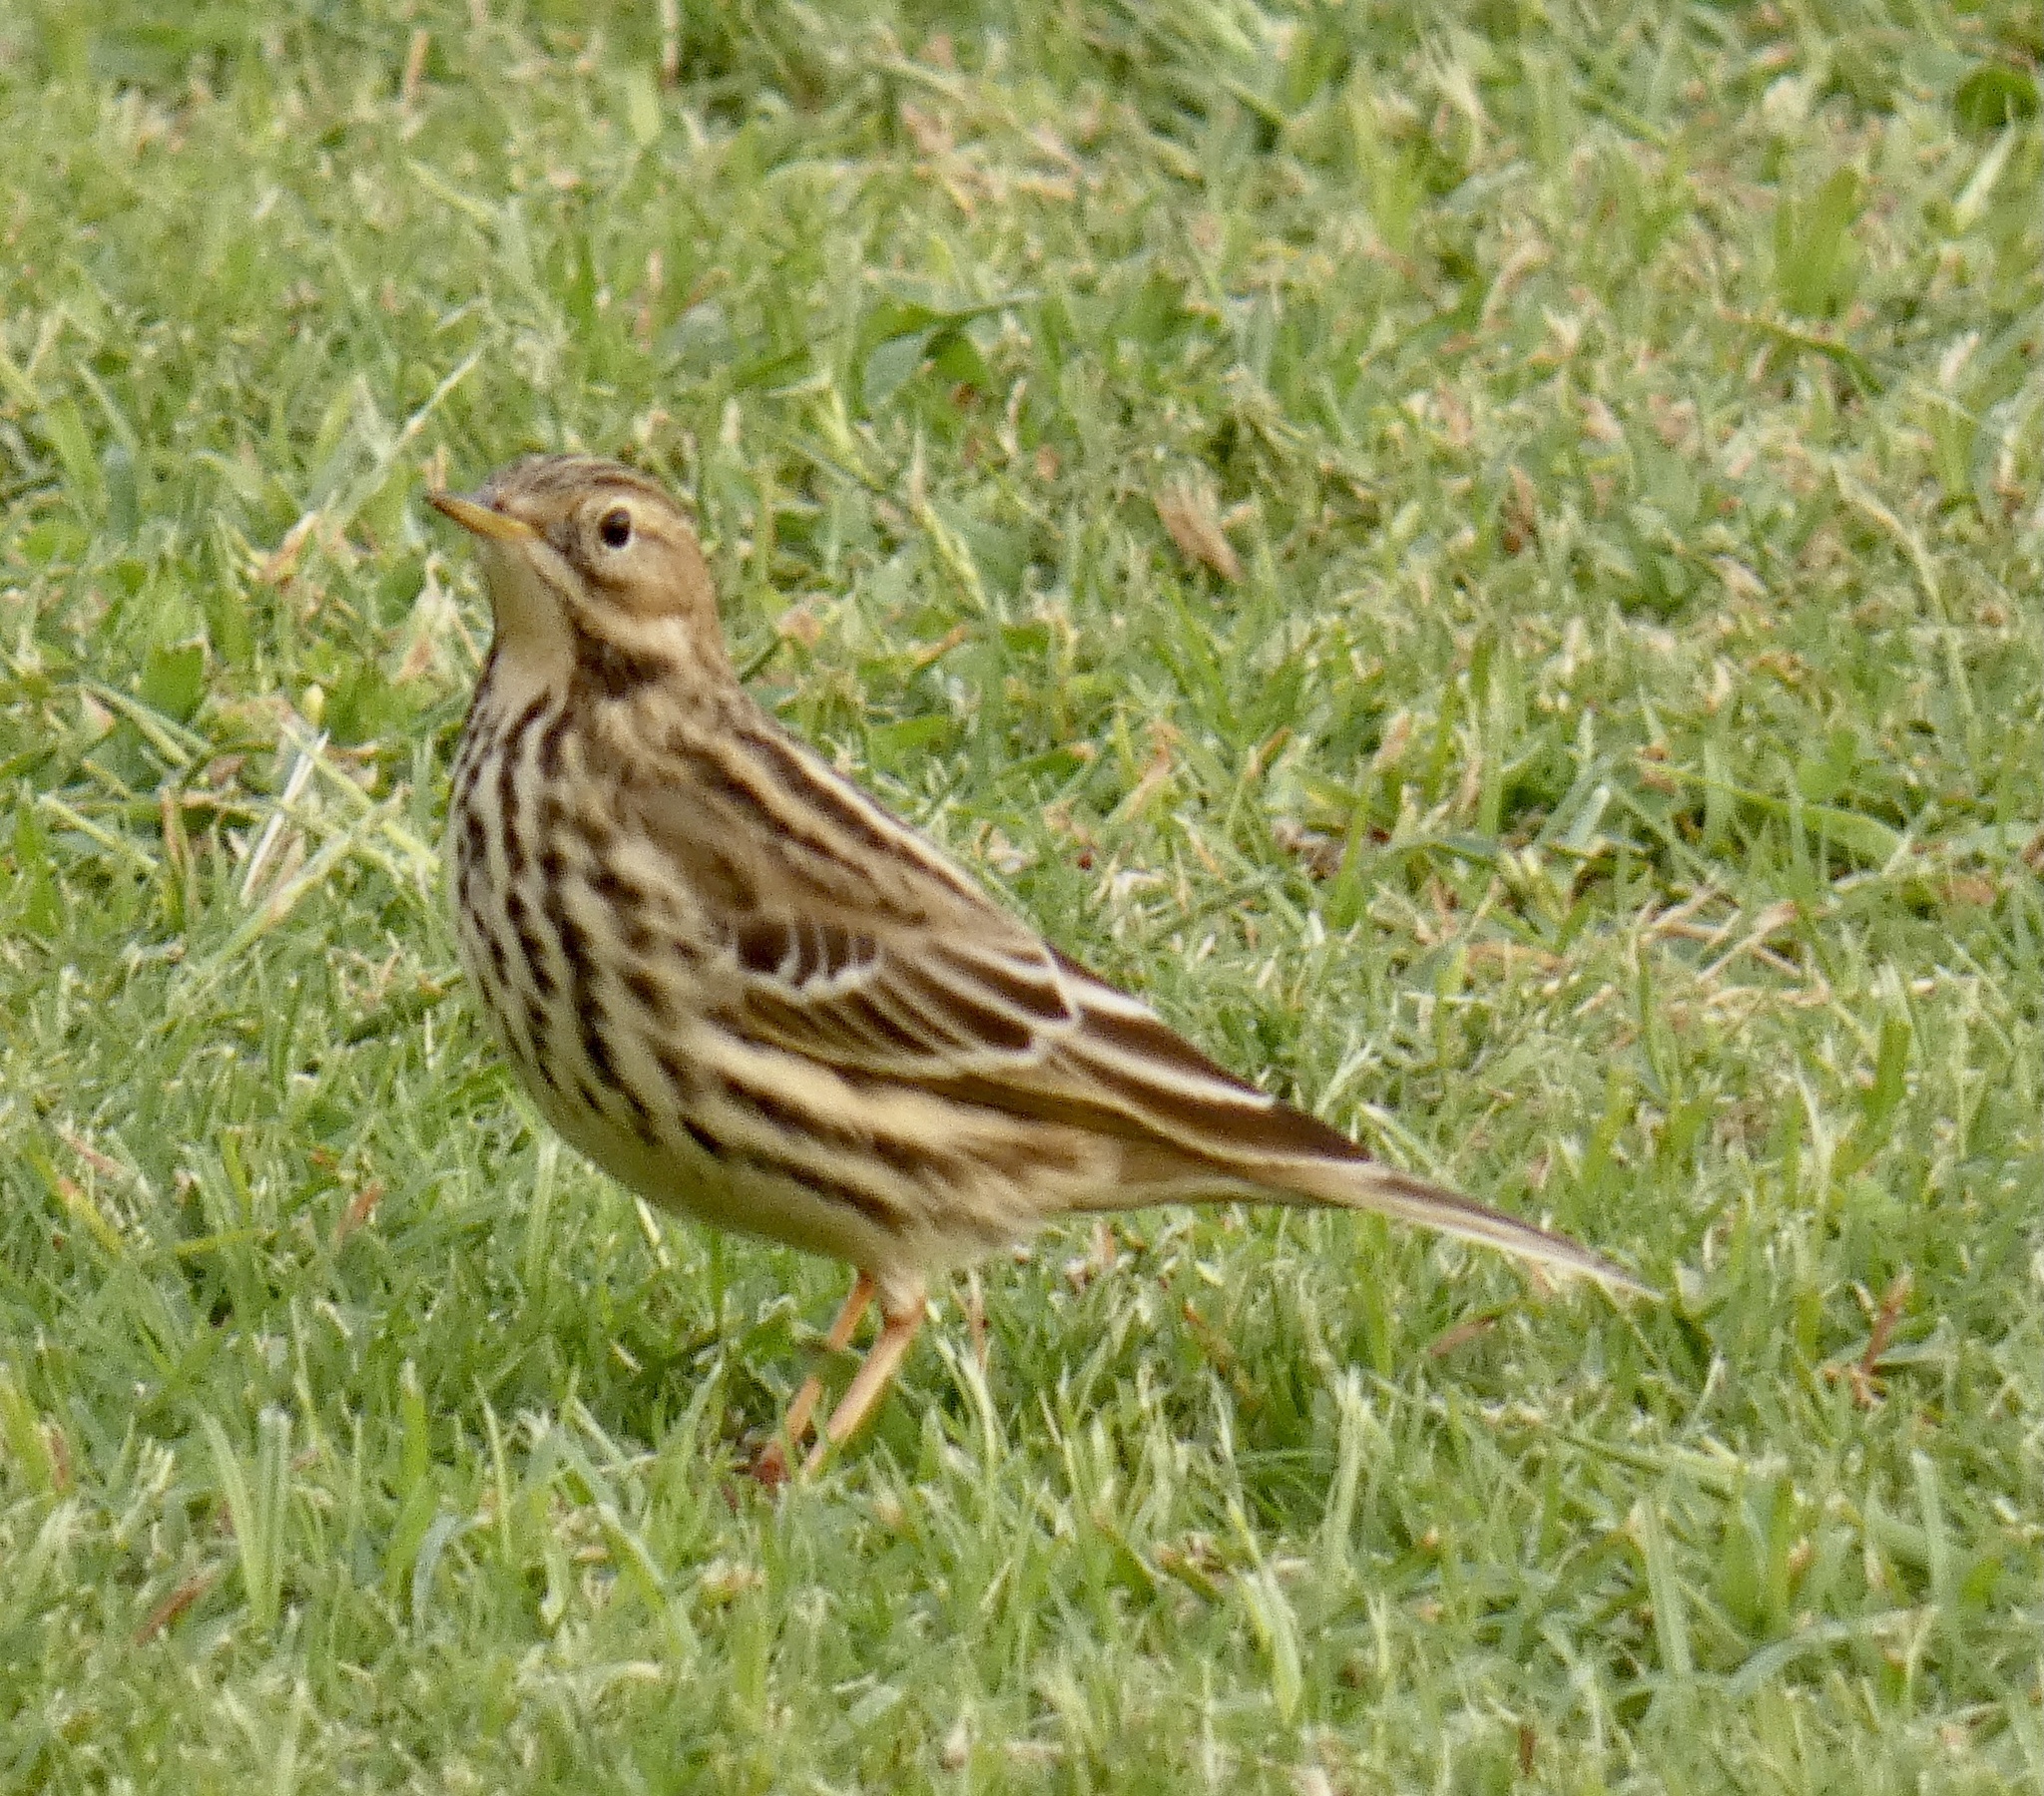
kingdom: Animalia
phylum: Chordata
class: Aves
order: Passeriformes
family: Motacillidae
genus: Anthus
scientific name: Anthus cervinus
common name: Red-throated pipit
